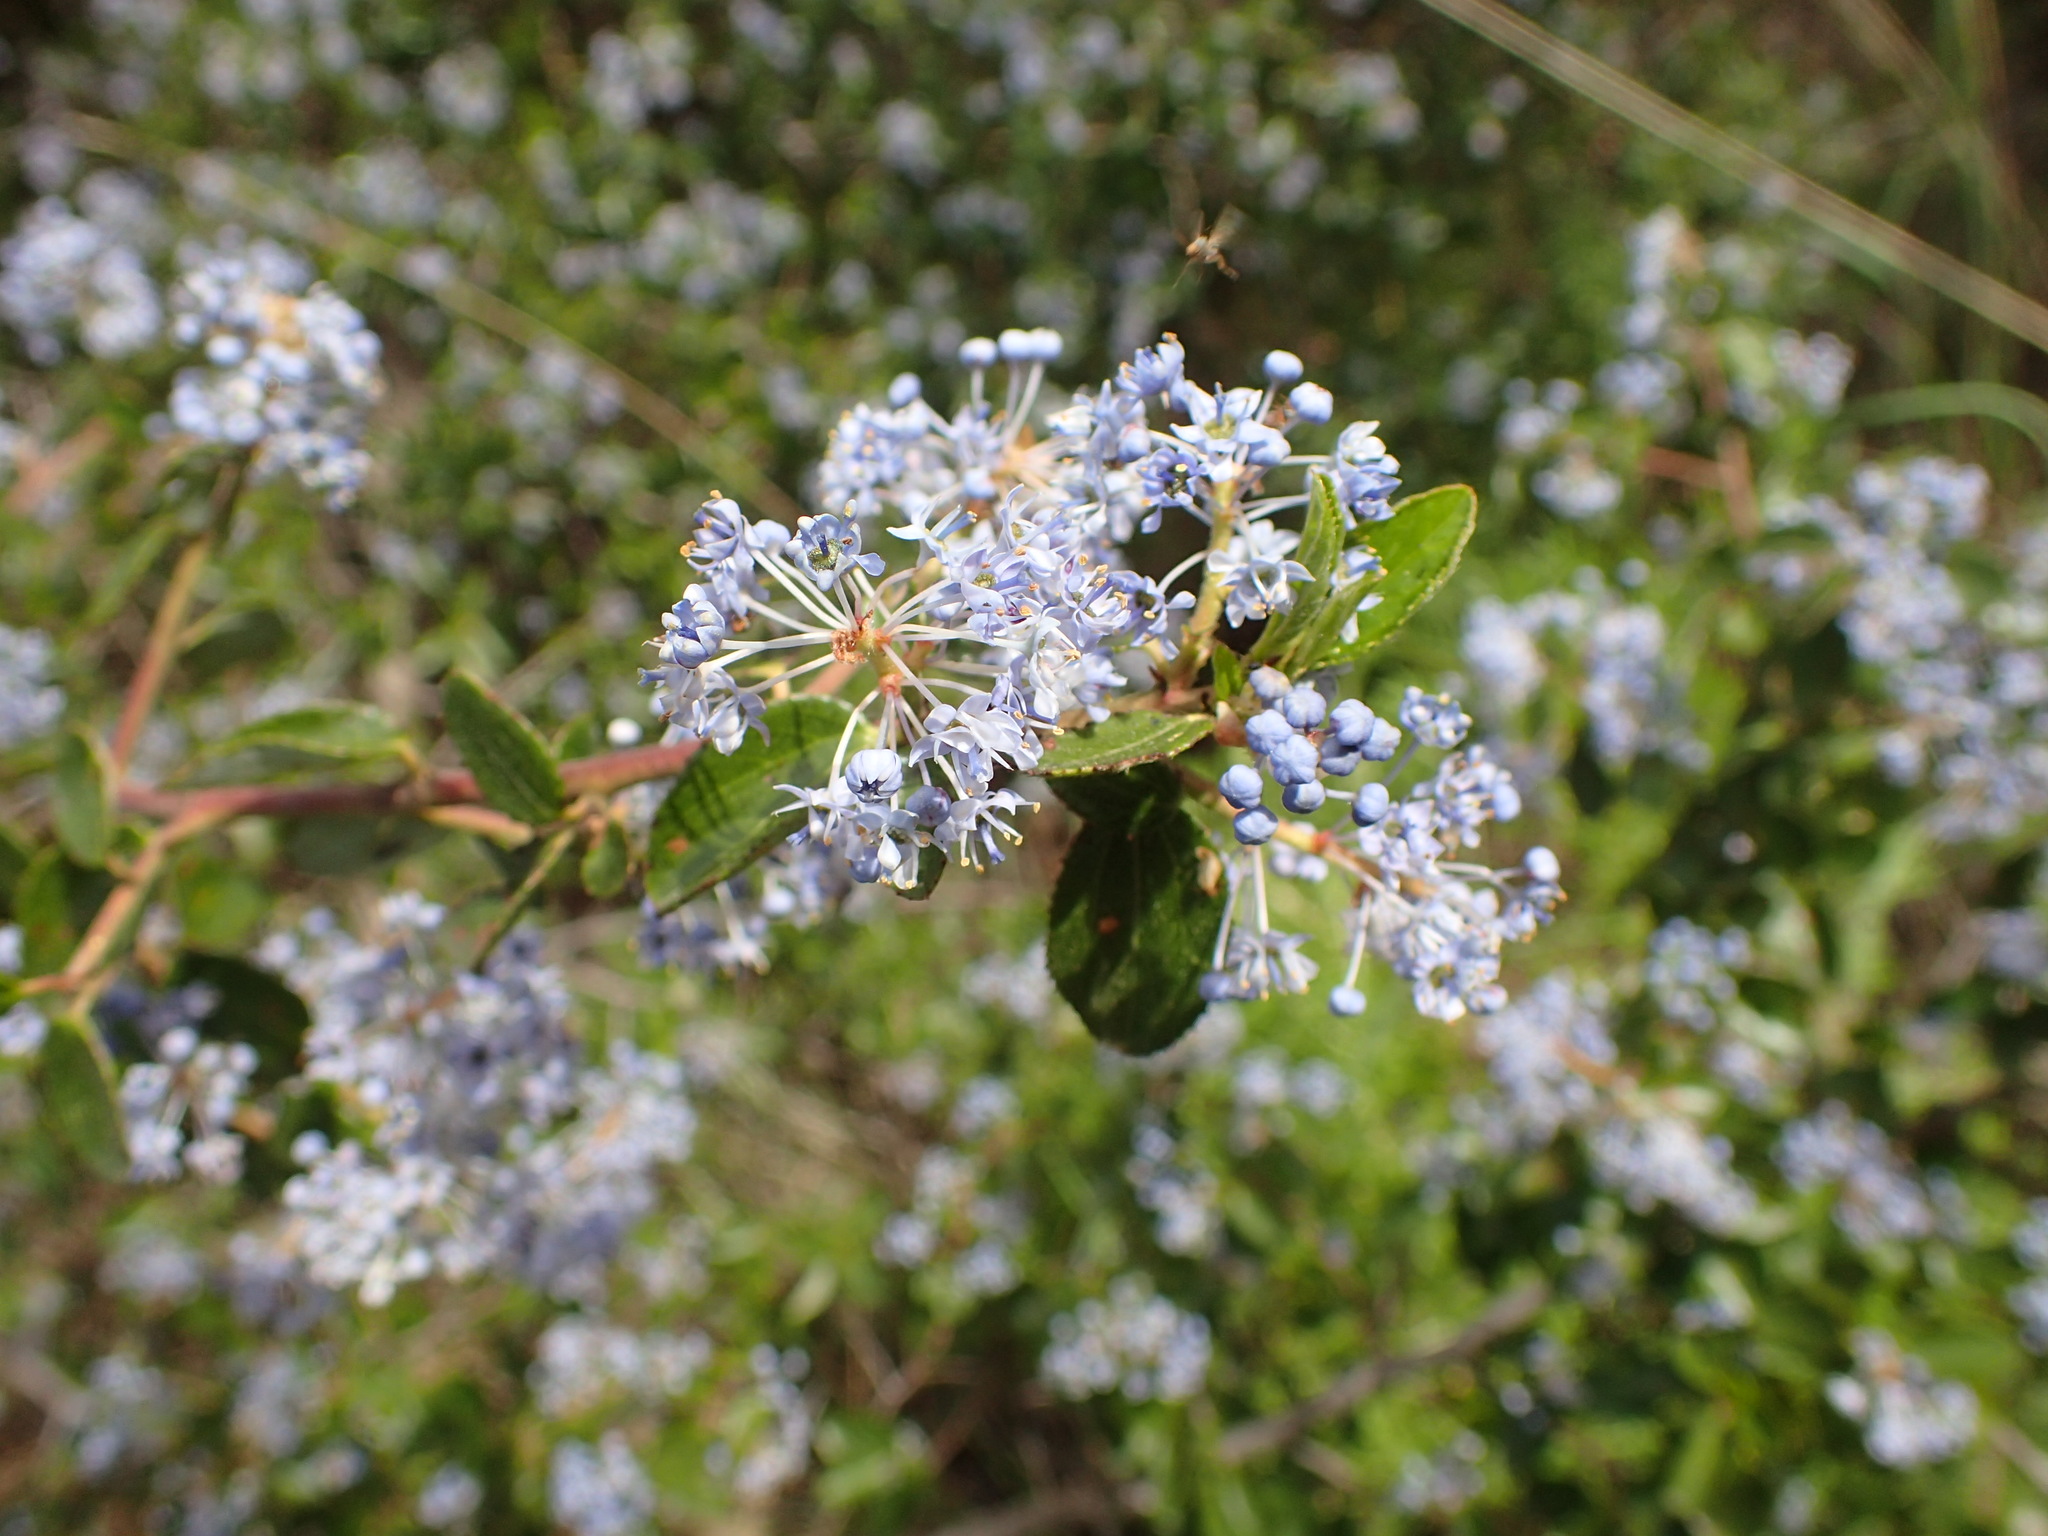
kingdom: Plantae
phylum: Tracheophyta
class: Magnoliopsida
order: Rosales
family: Rhamnaceae
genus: Ceanothus
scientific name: Ceanothus oliganthus
